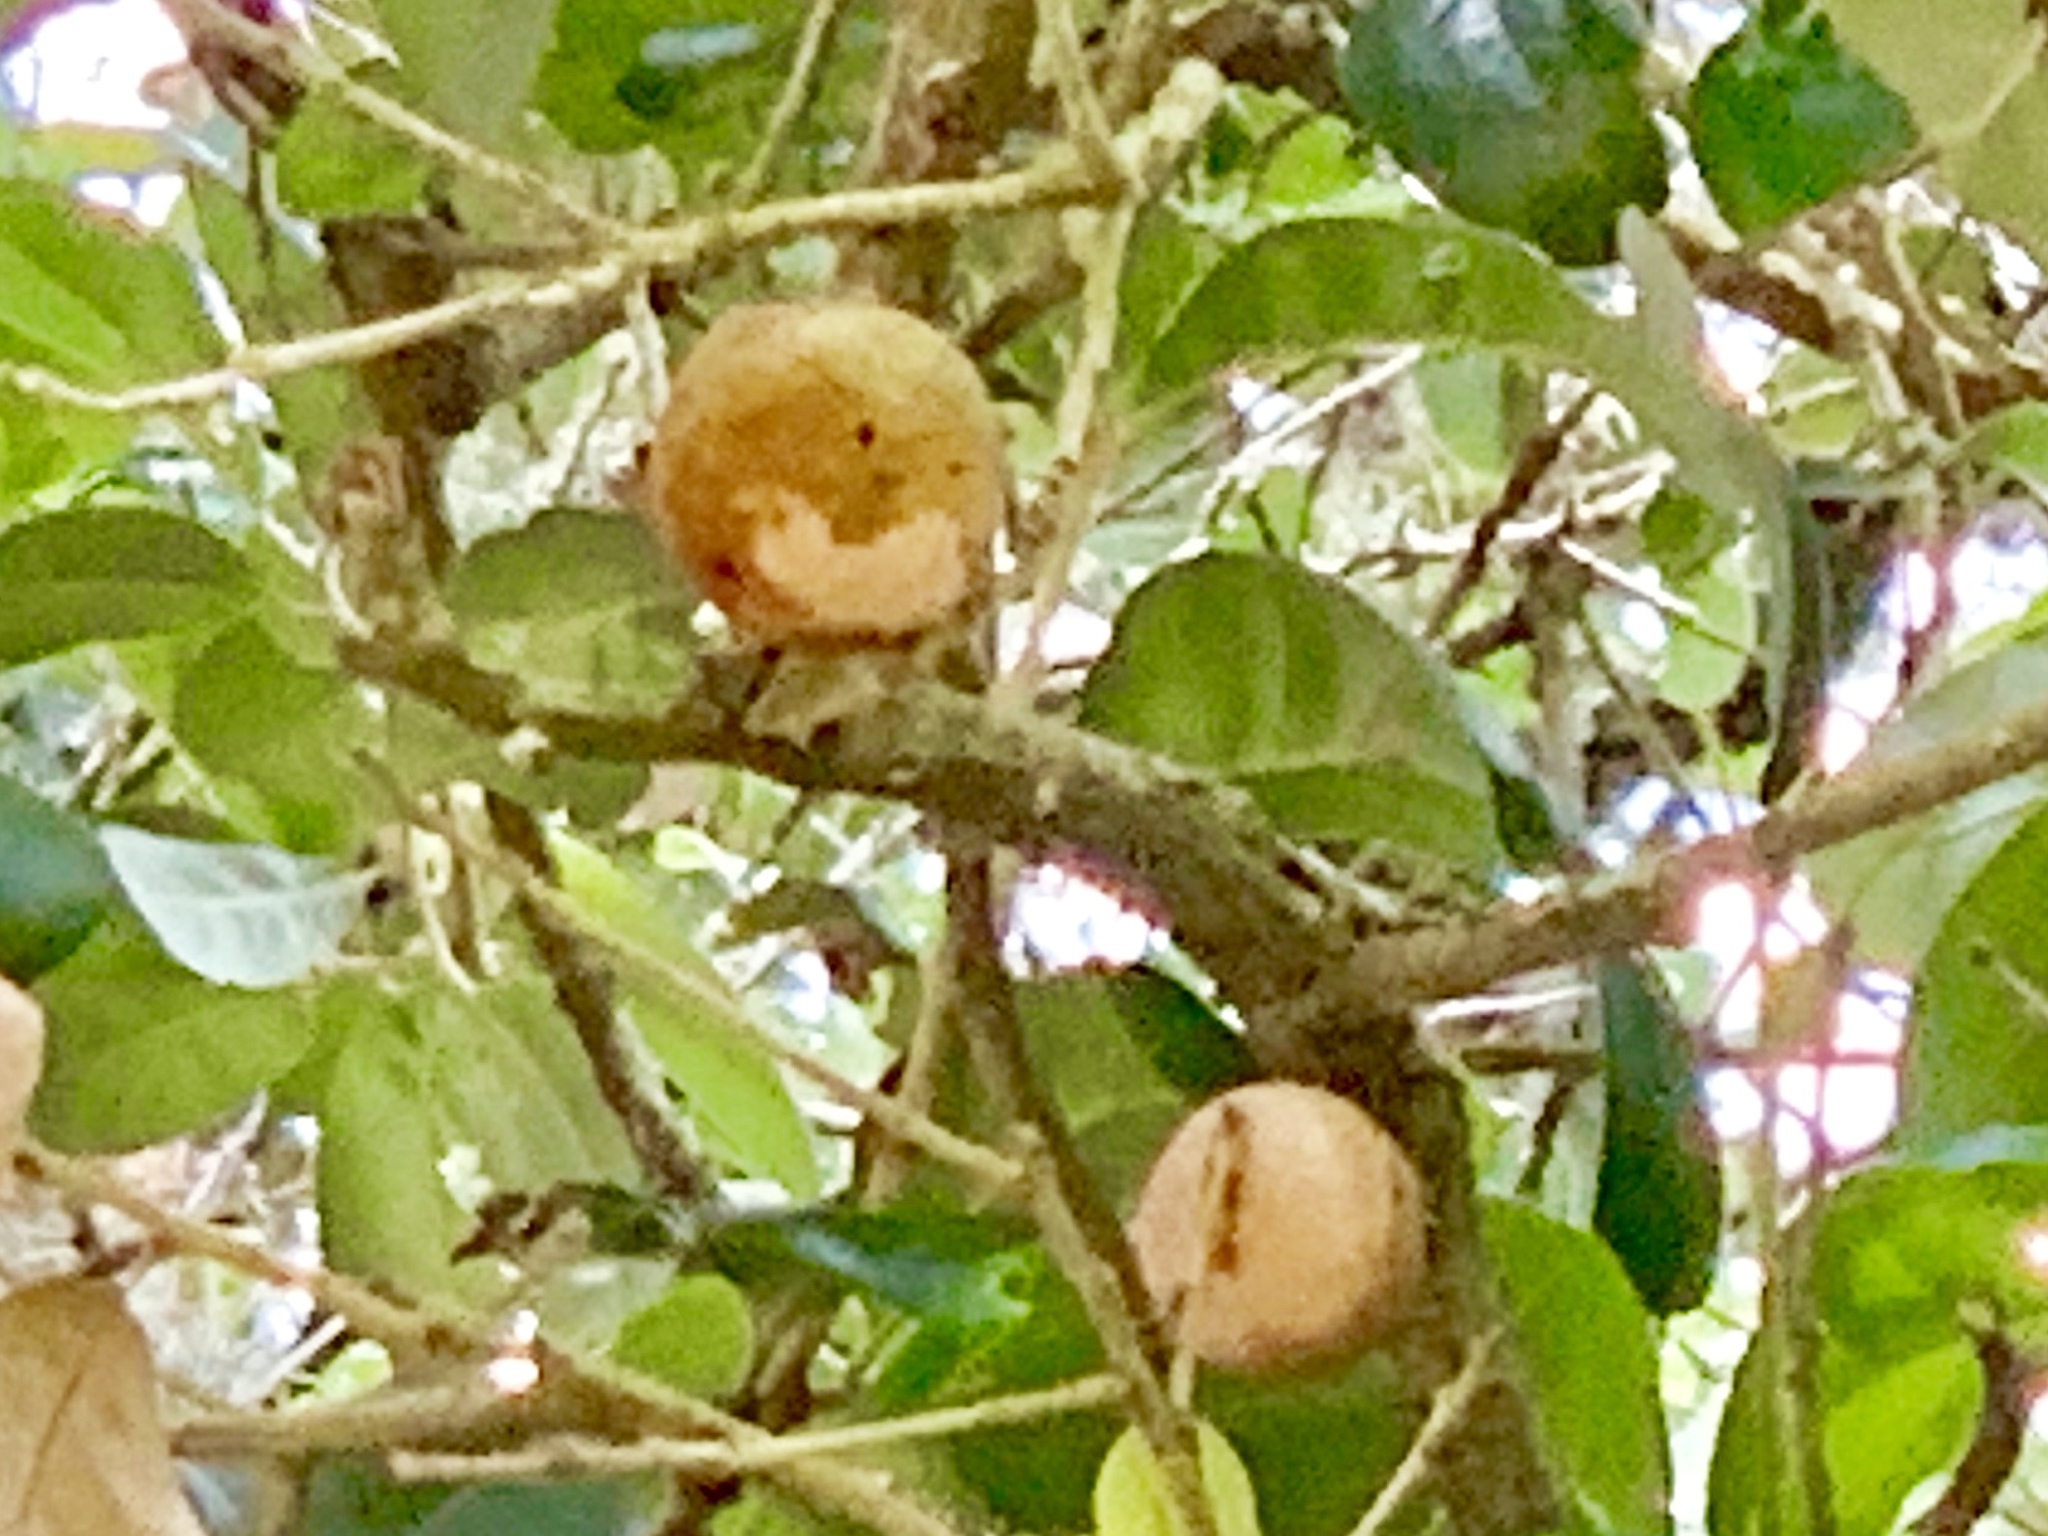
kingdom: Animalia
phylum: Arthropoda
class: Insecta
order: Hymenoptera
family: Cynipidae
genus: Disholcaspis
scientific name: Disholcaspis
